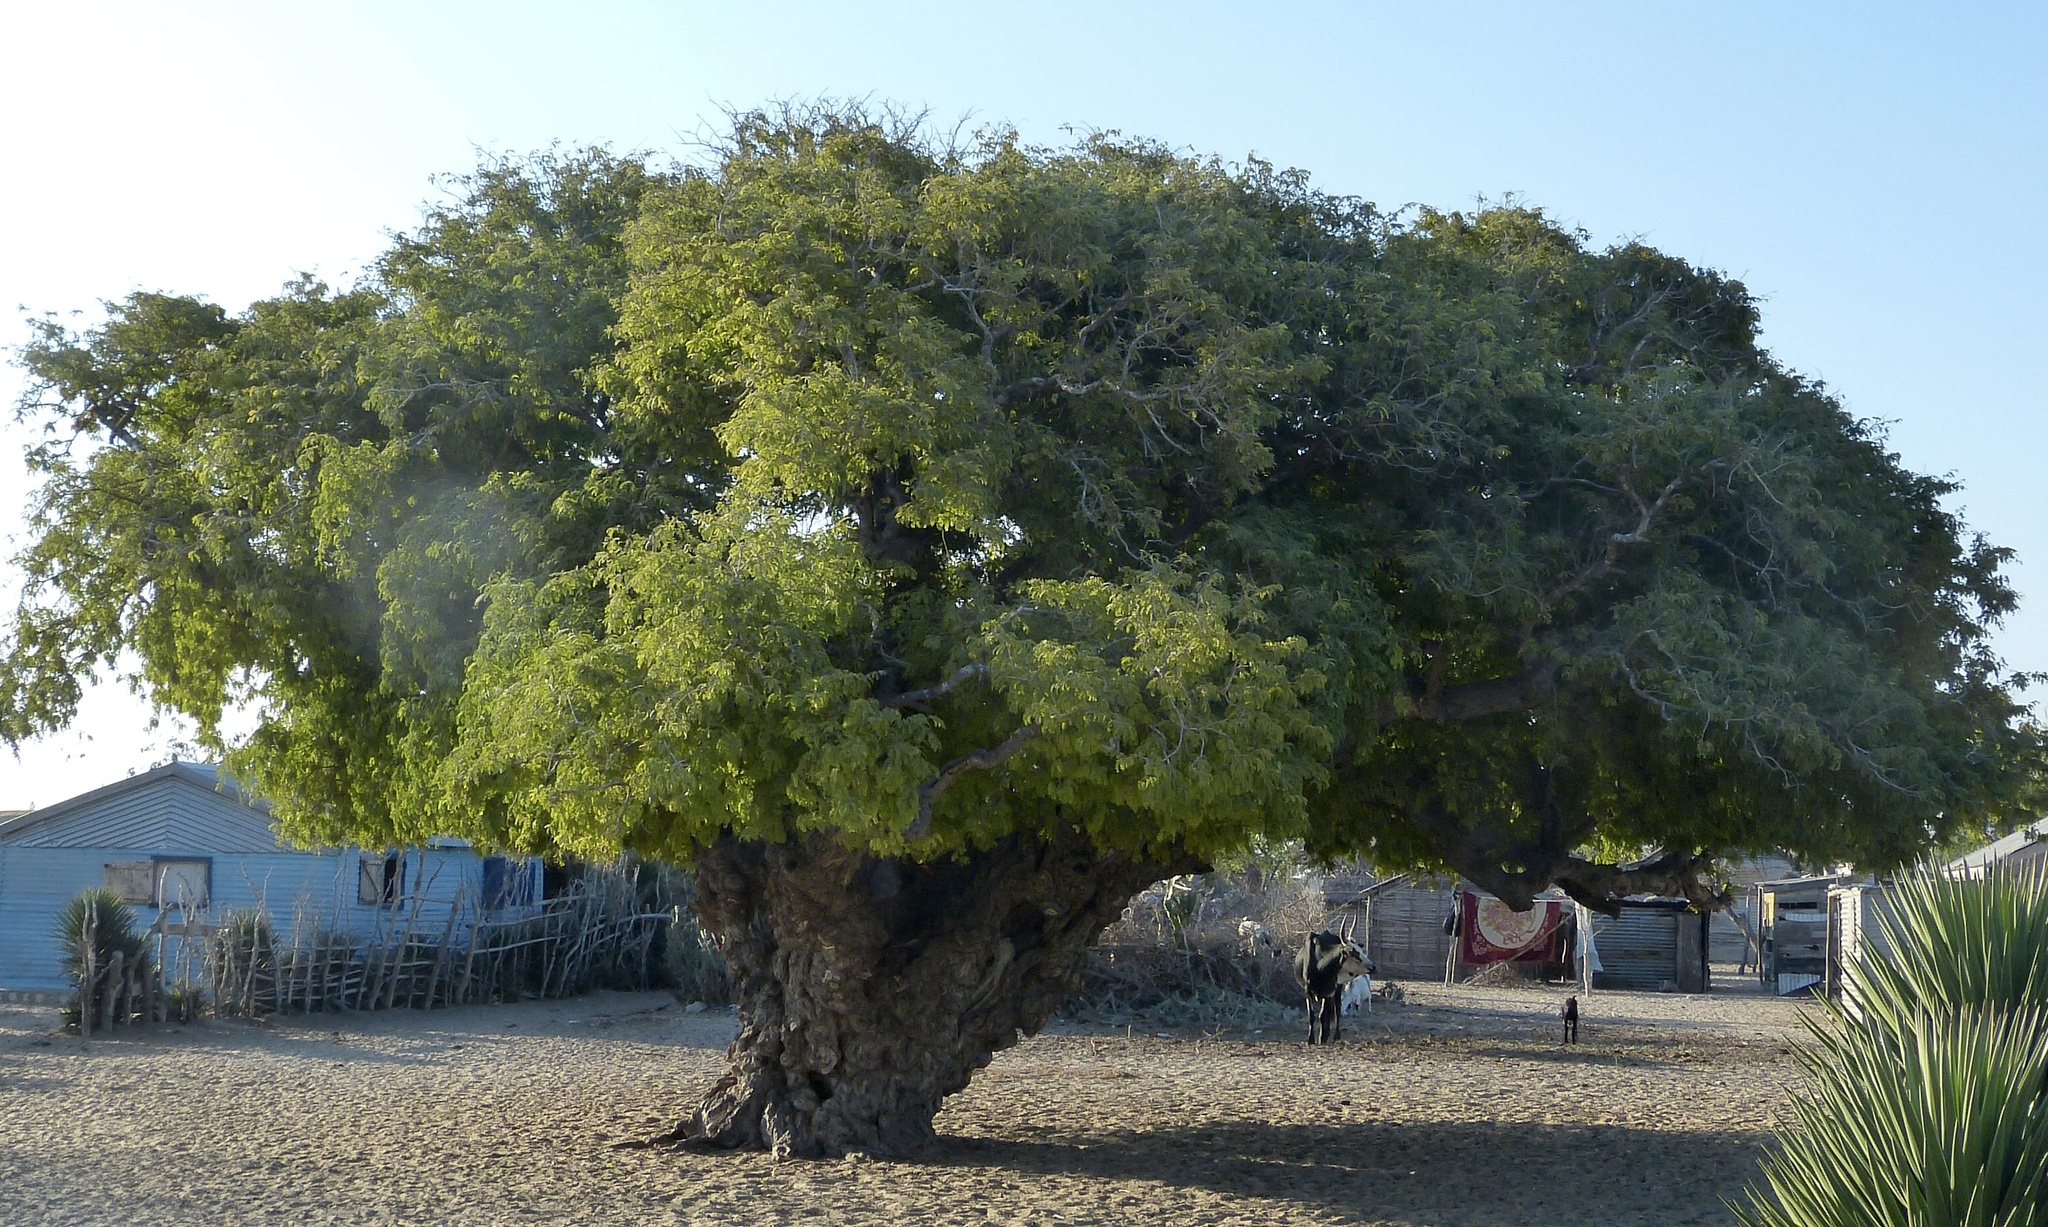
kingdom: Plantae
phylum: Tracheophyta
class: Magnoliopsida
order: Fabales
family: Fabaceae
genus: Tamarindus
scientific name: Tamarindus indica
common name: Tamarind
